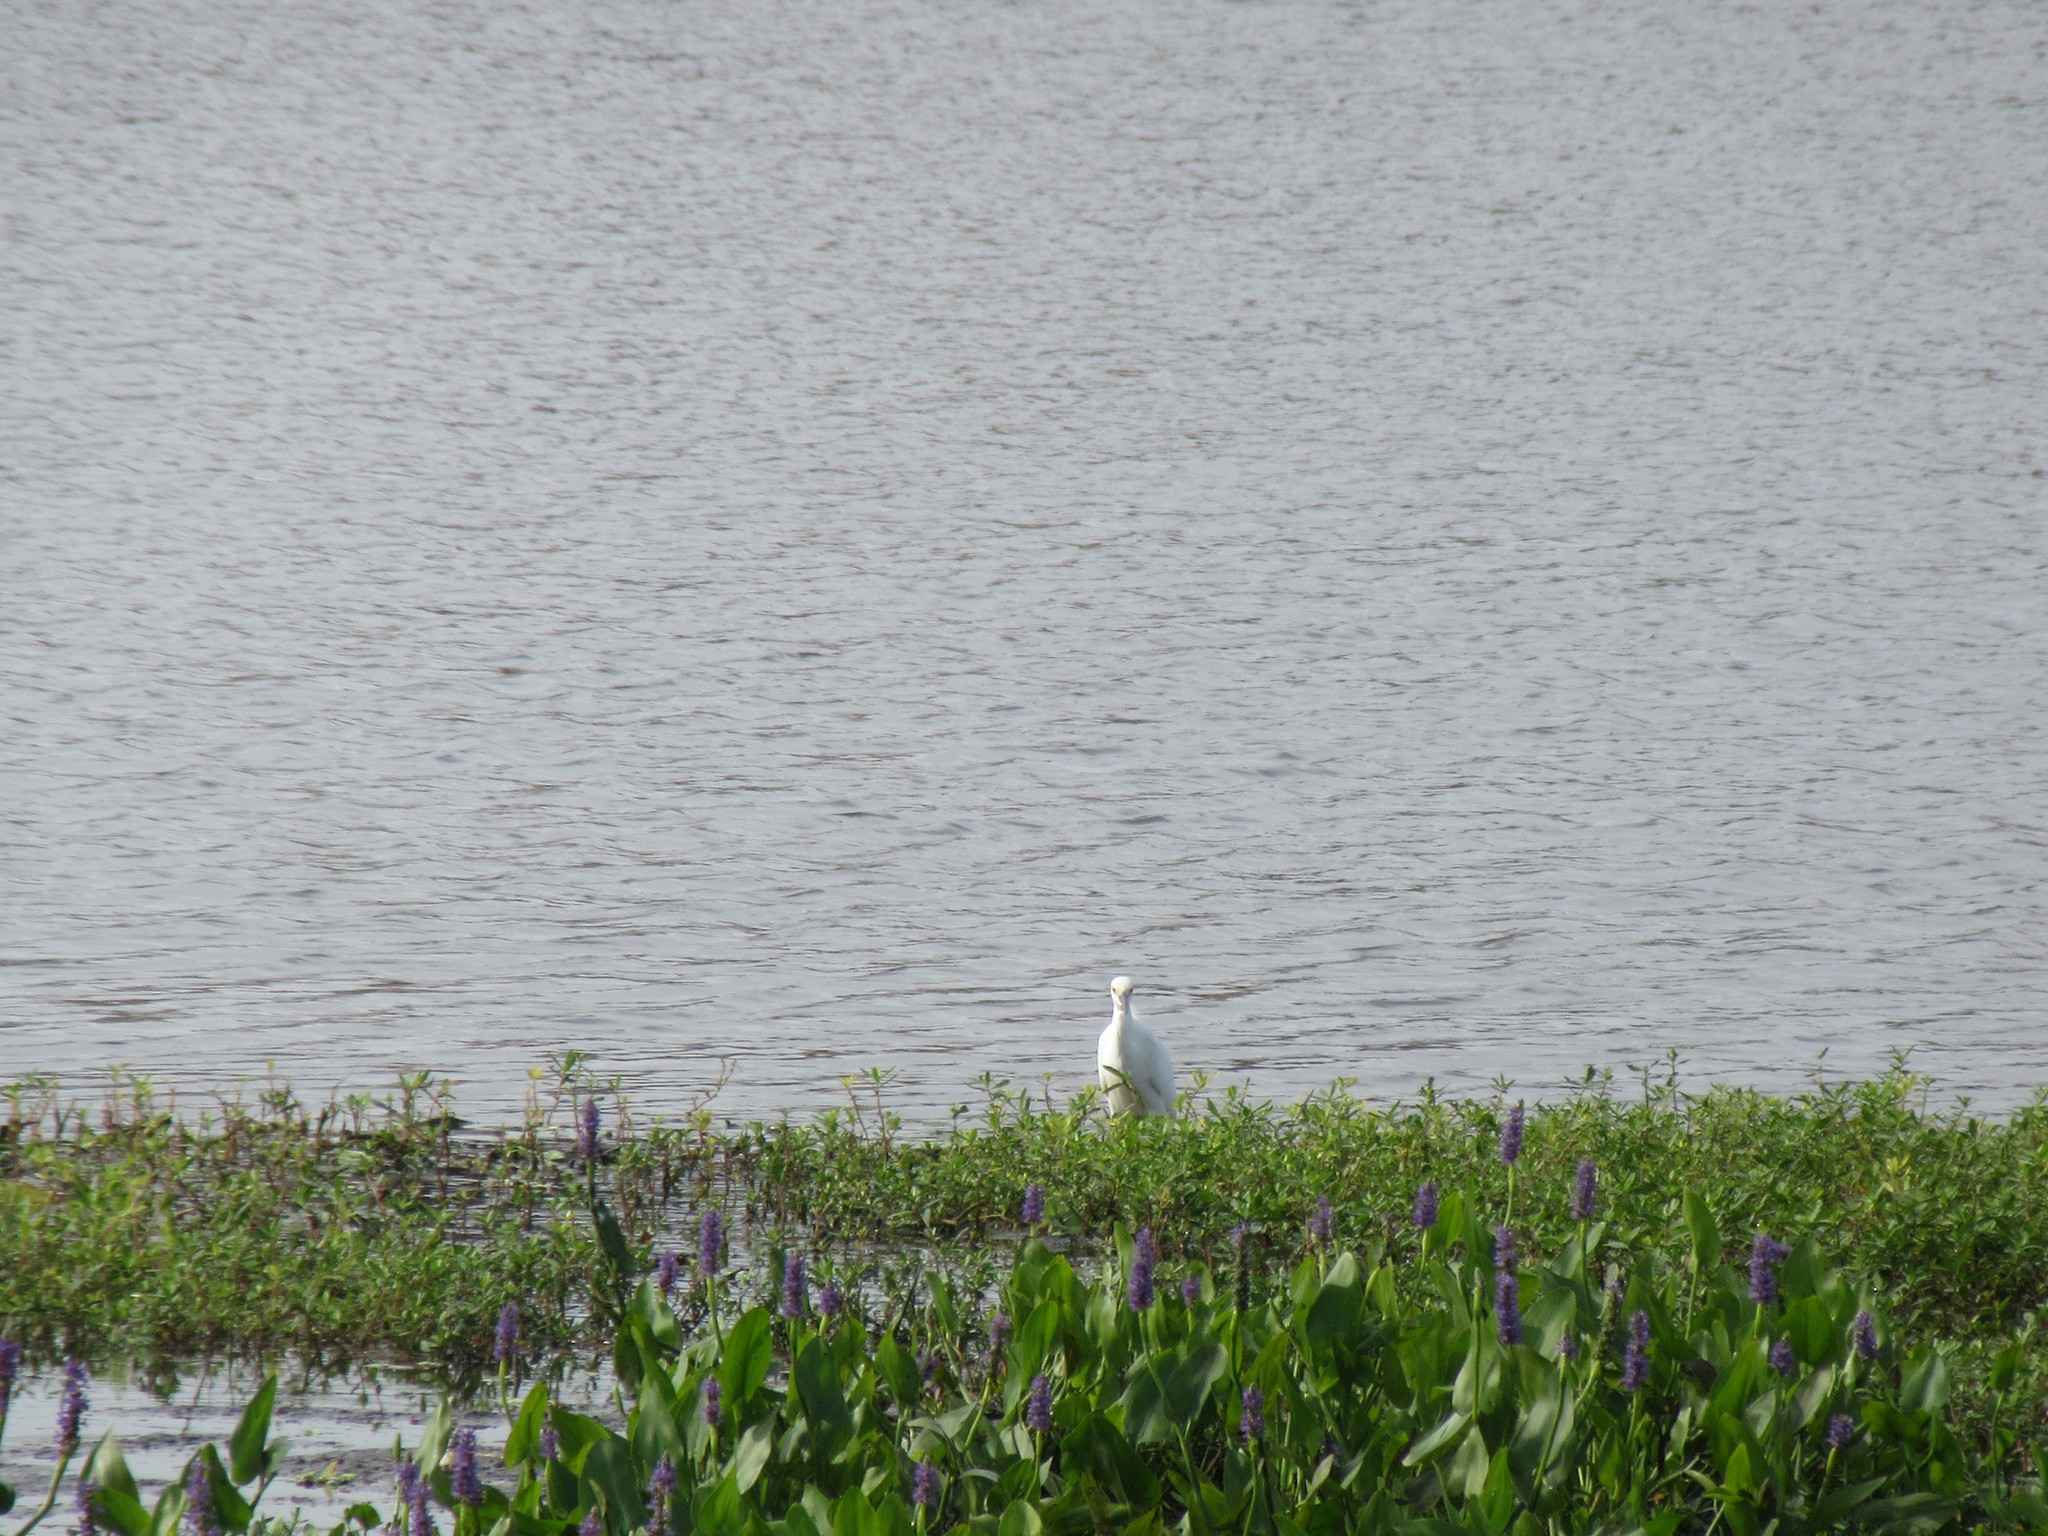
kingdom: Animalia
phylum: Chordata
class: Aves
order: Pelecaniformes
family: Ardeidae
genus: Egretta
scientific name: Egretta thula
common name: Snowy egret
